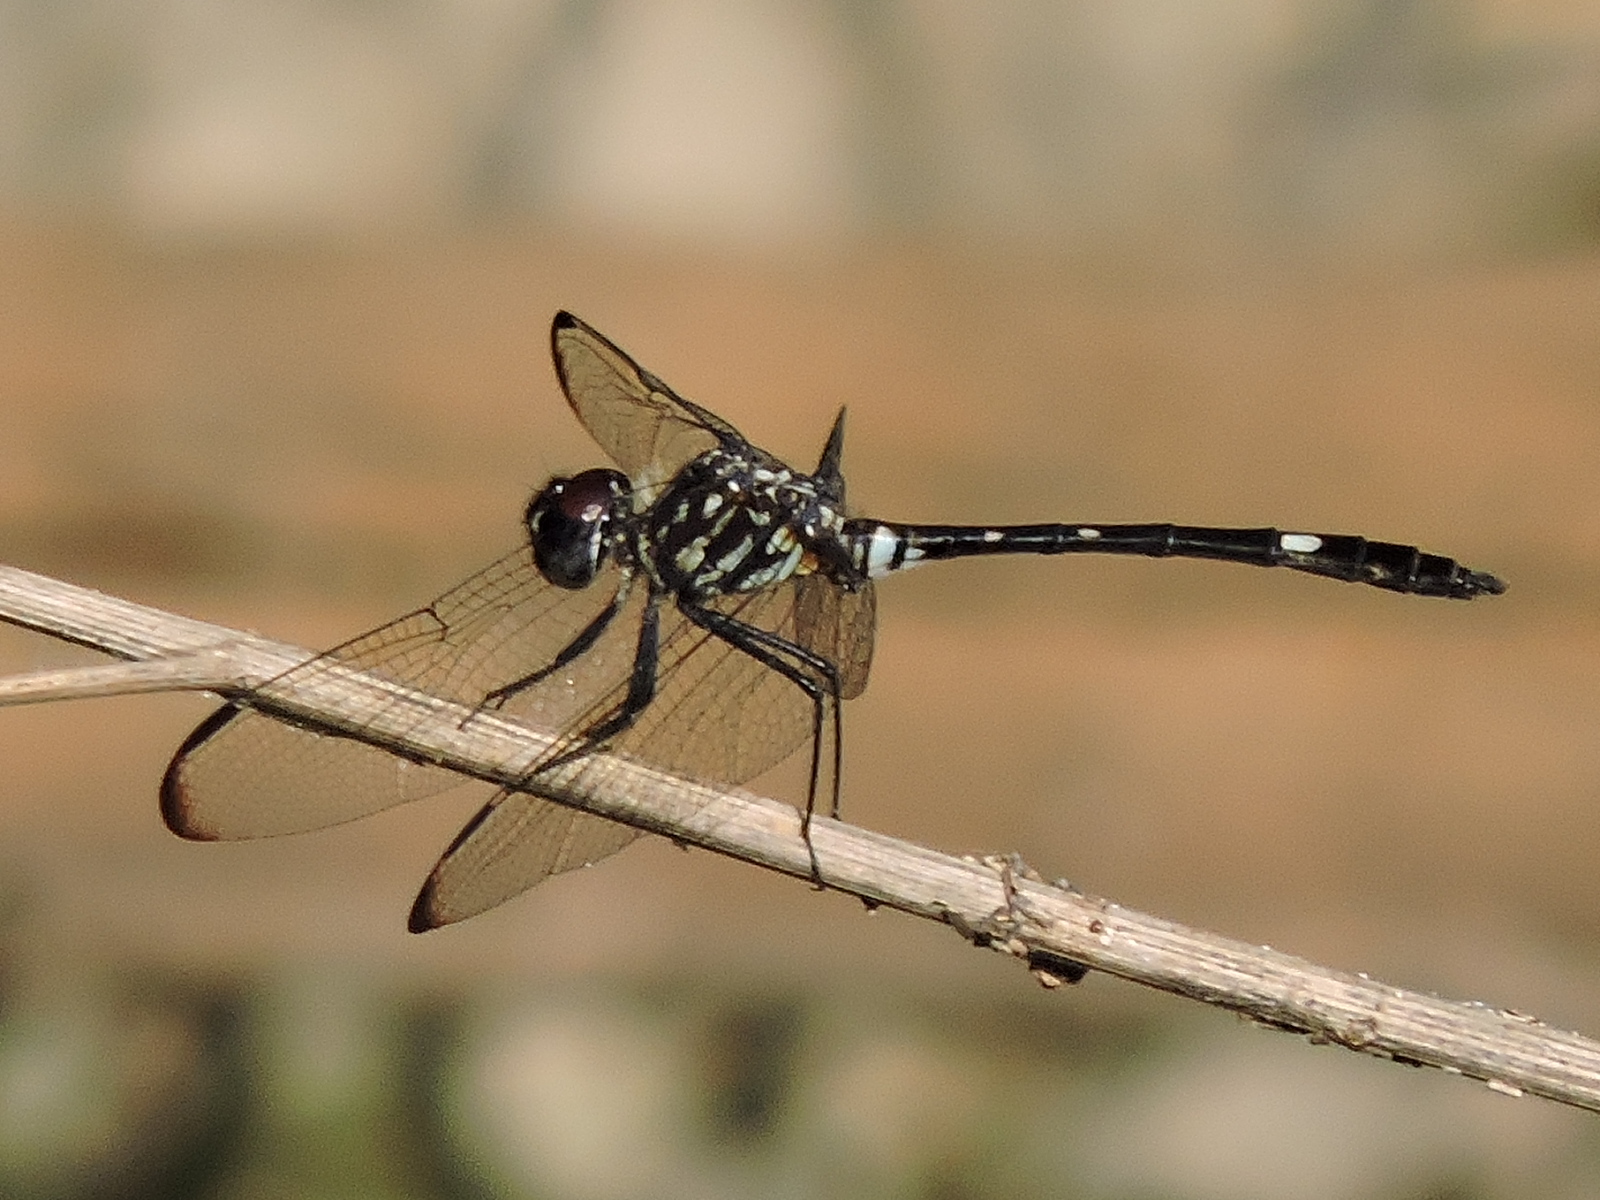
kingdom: Animalia
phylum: Arthropoda
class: Insecta
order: Odonata
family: Libellulidae
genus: Dythemis
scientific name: Dythemis velox
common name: Swift setwing
